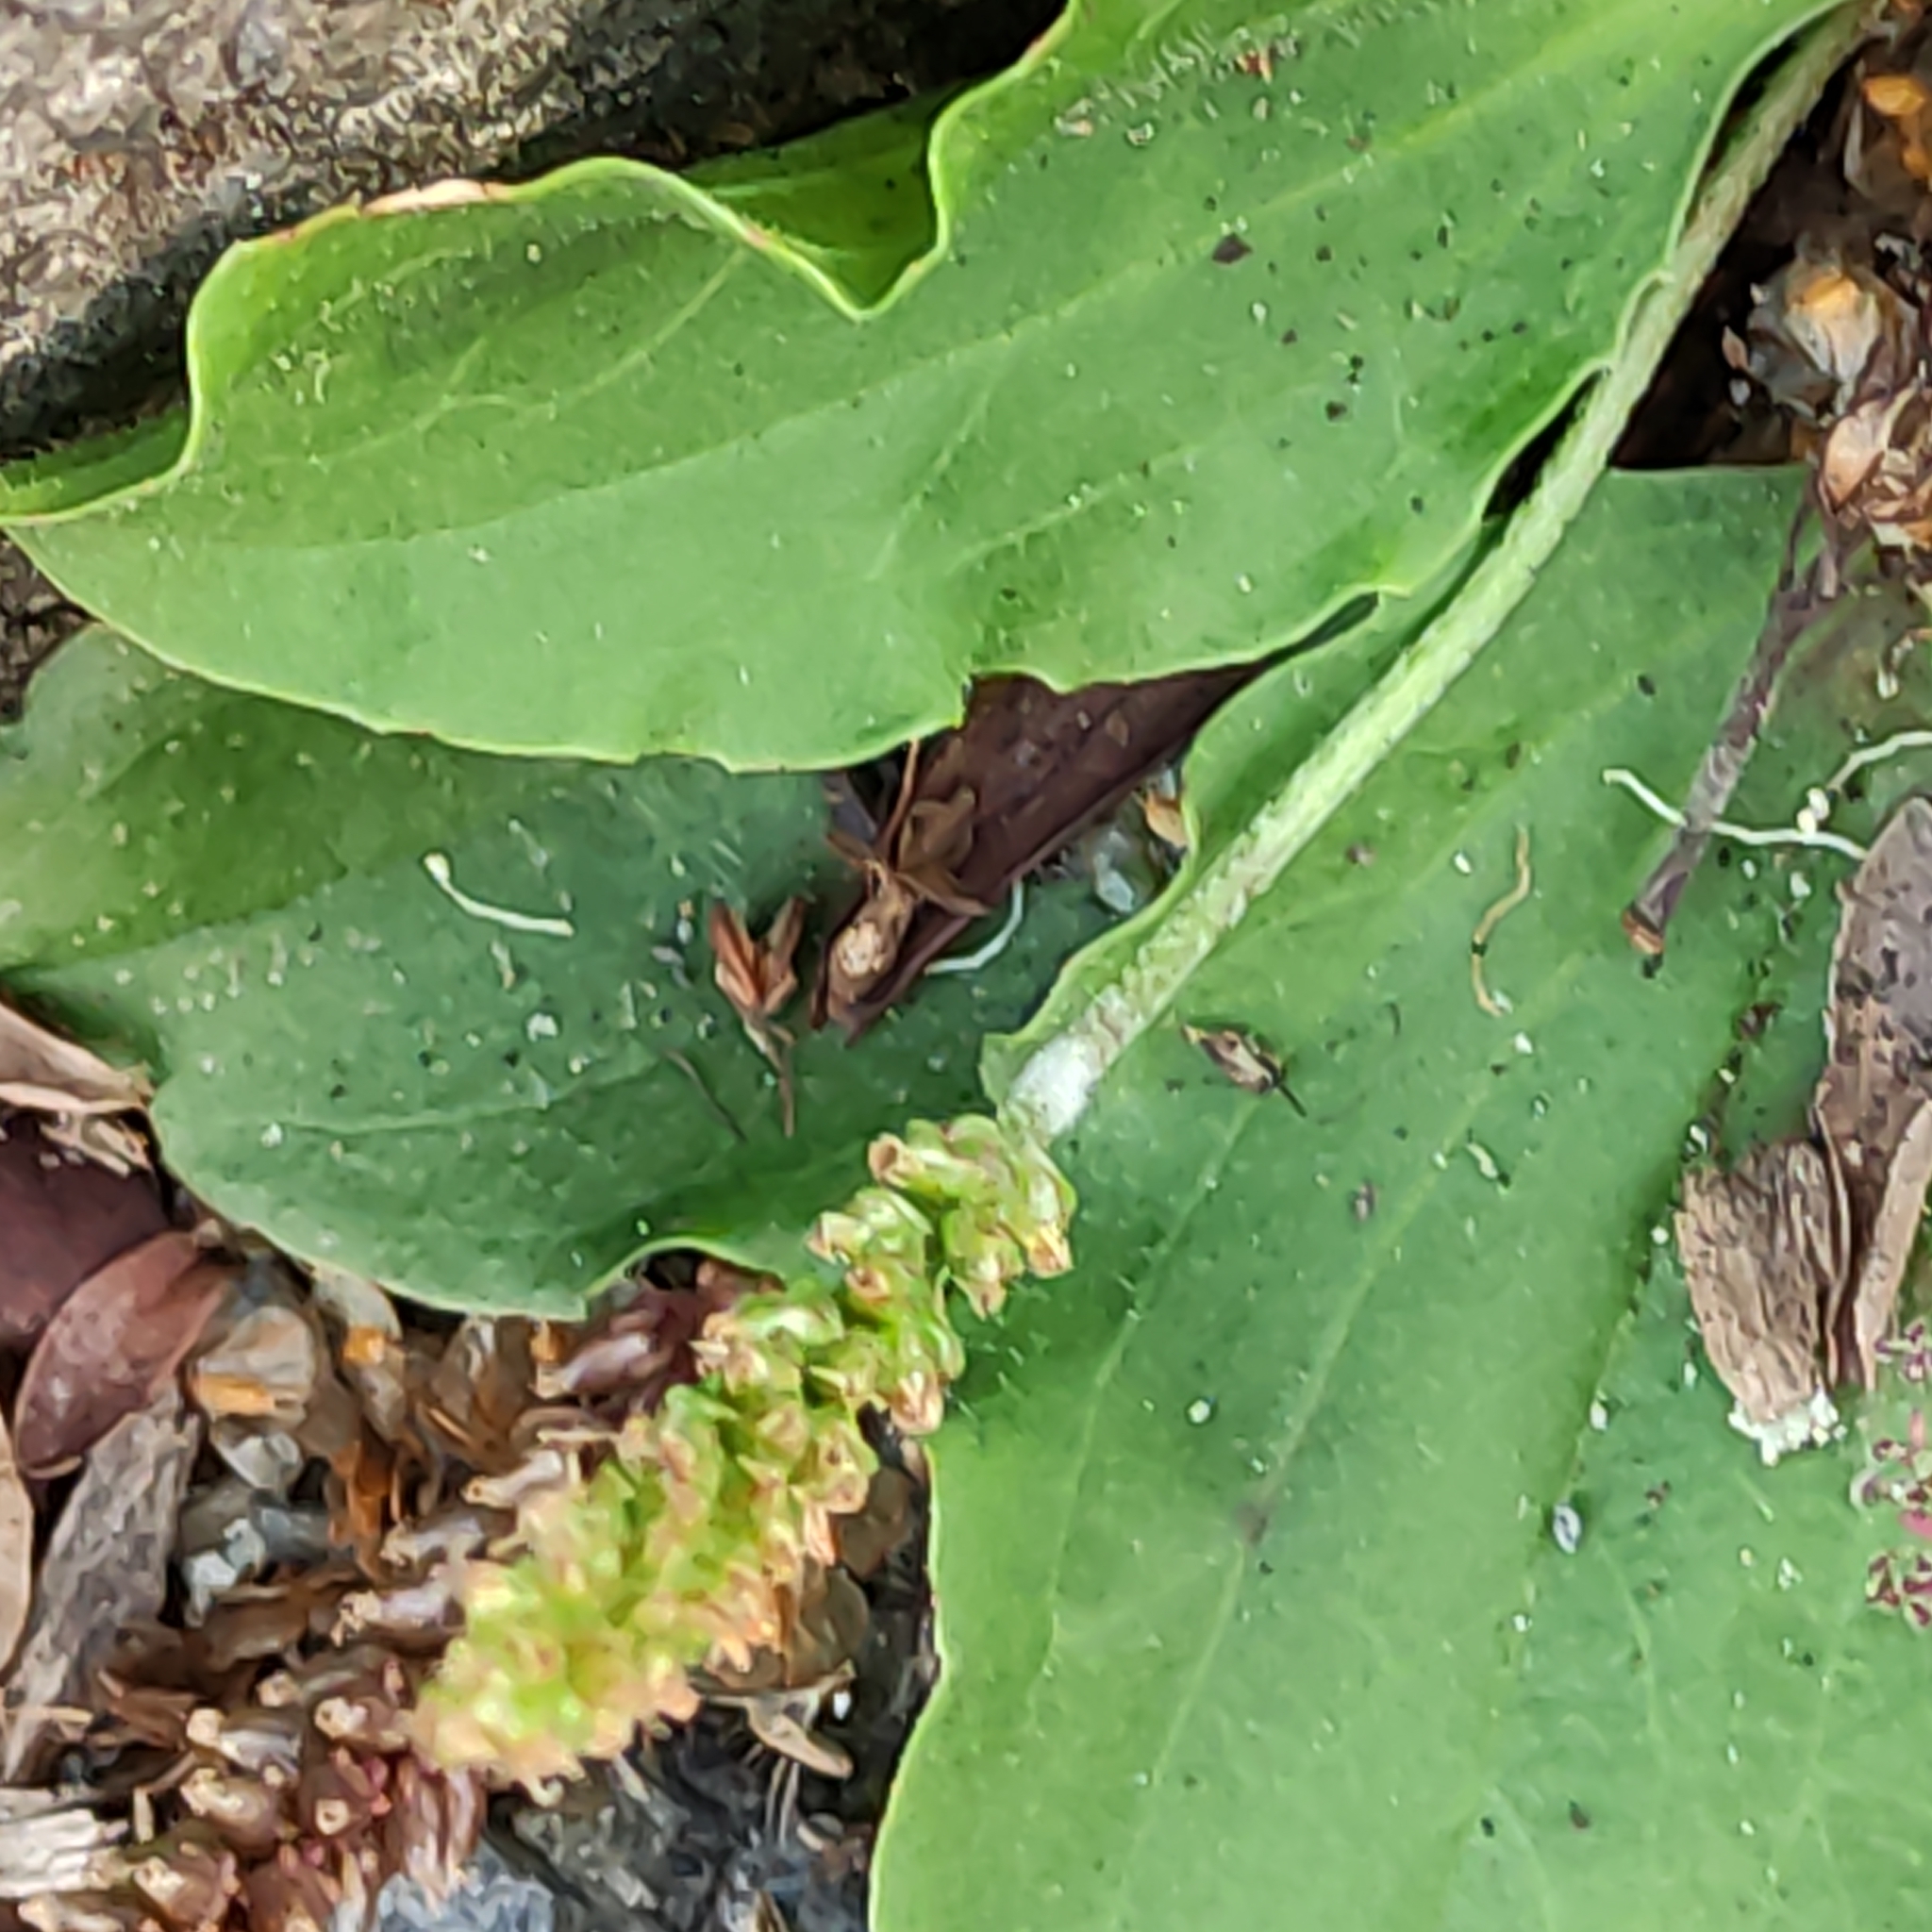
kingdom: Plantae
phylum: Tracheophyta
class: Magnoliopsida
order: Lamiales
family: Plantaginaceae
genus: Plantago
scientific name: Plantago major
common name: Common plantain
